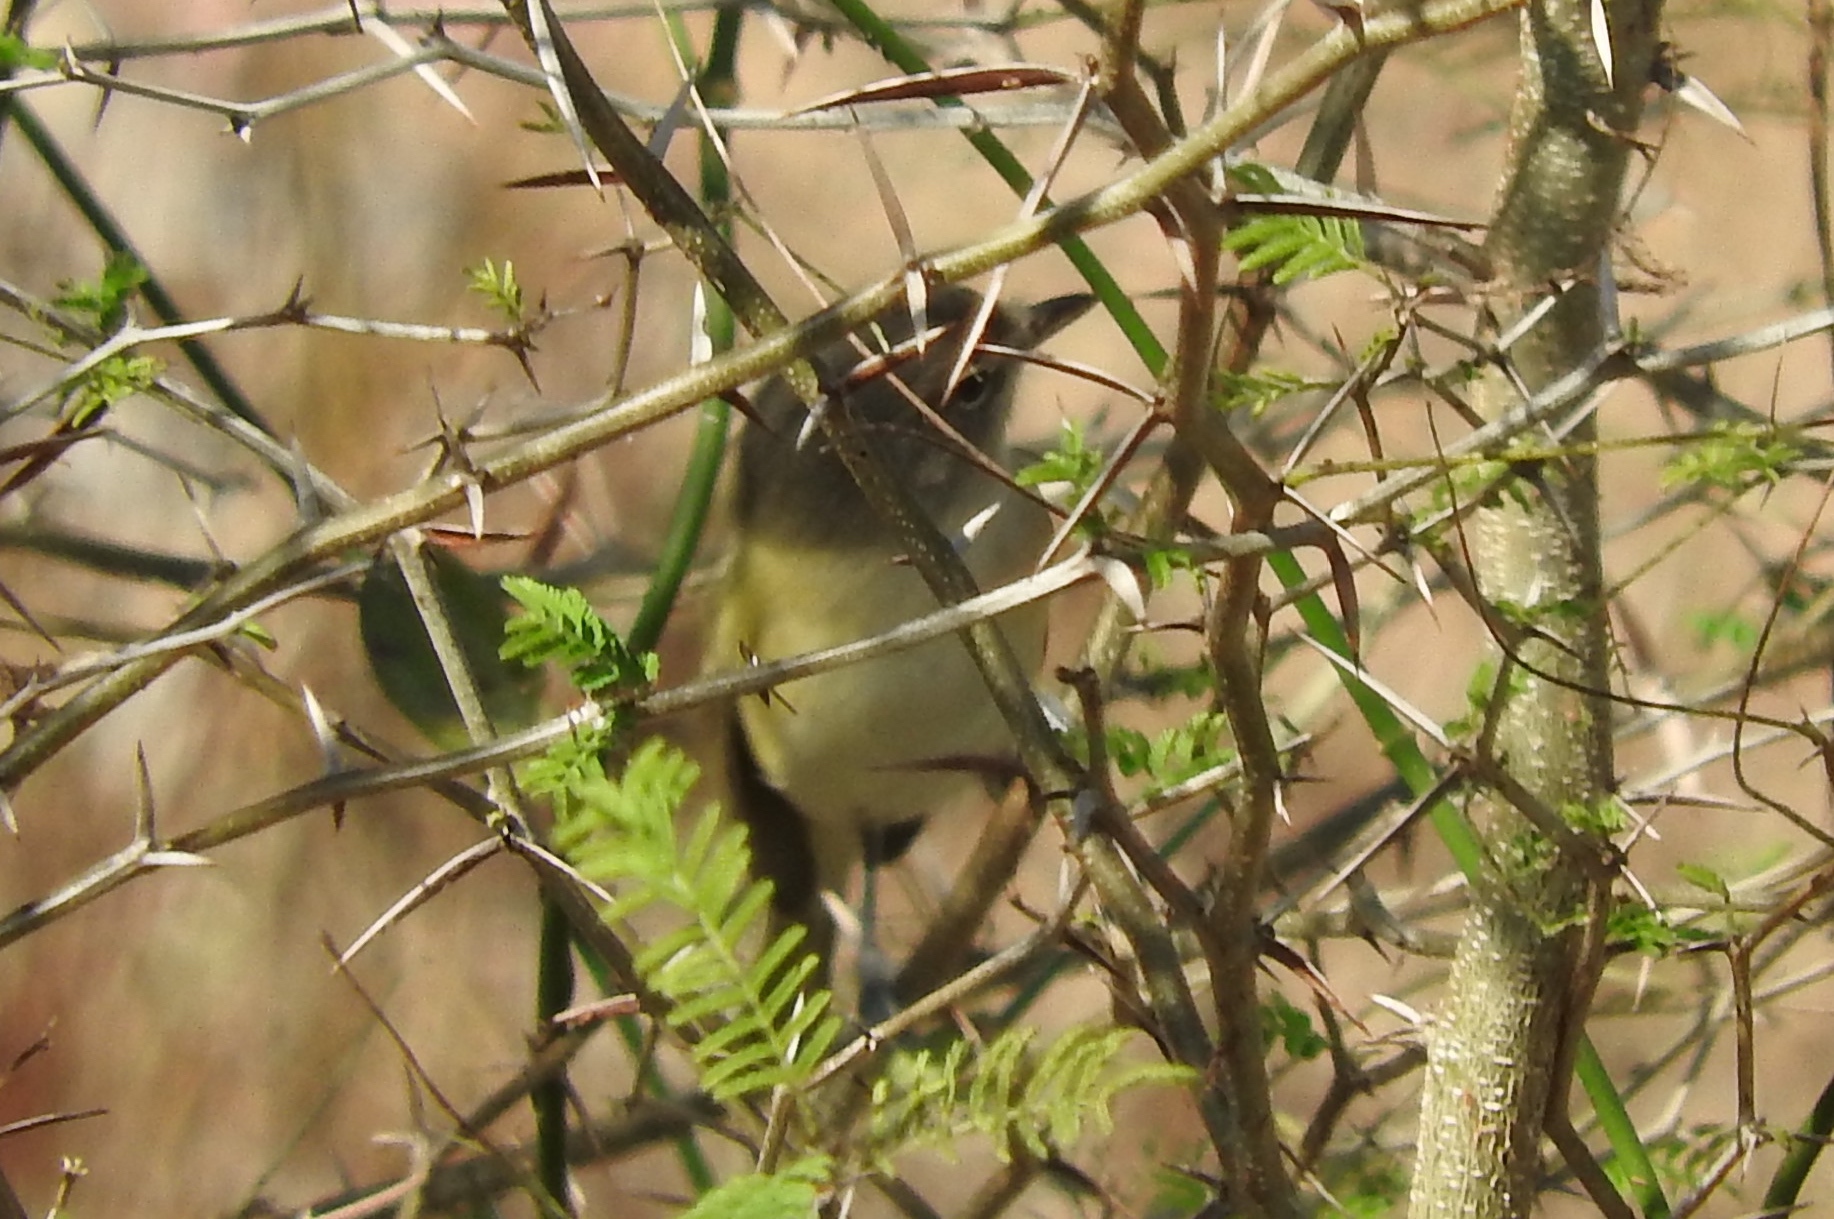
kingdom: Animalia
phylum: Chordata
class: Aves
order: Passeriformes
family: Vireonidae
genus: Vireo
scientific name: Vireo bellii
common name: Bell's vireo
